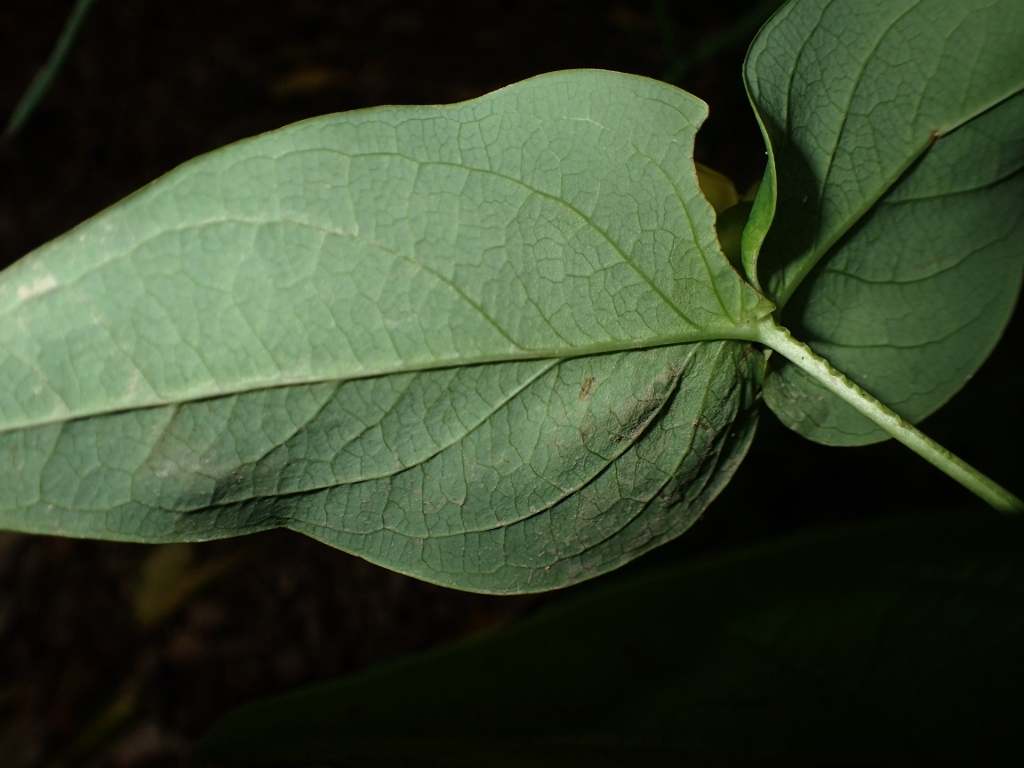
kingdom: Plantae
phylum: Tracheophyta
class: Magnoliopsida
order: Malpighiales
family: Hypericaceae
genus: Hypericum
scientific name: Hypericum androsaemum
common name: Sweet-amber
